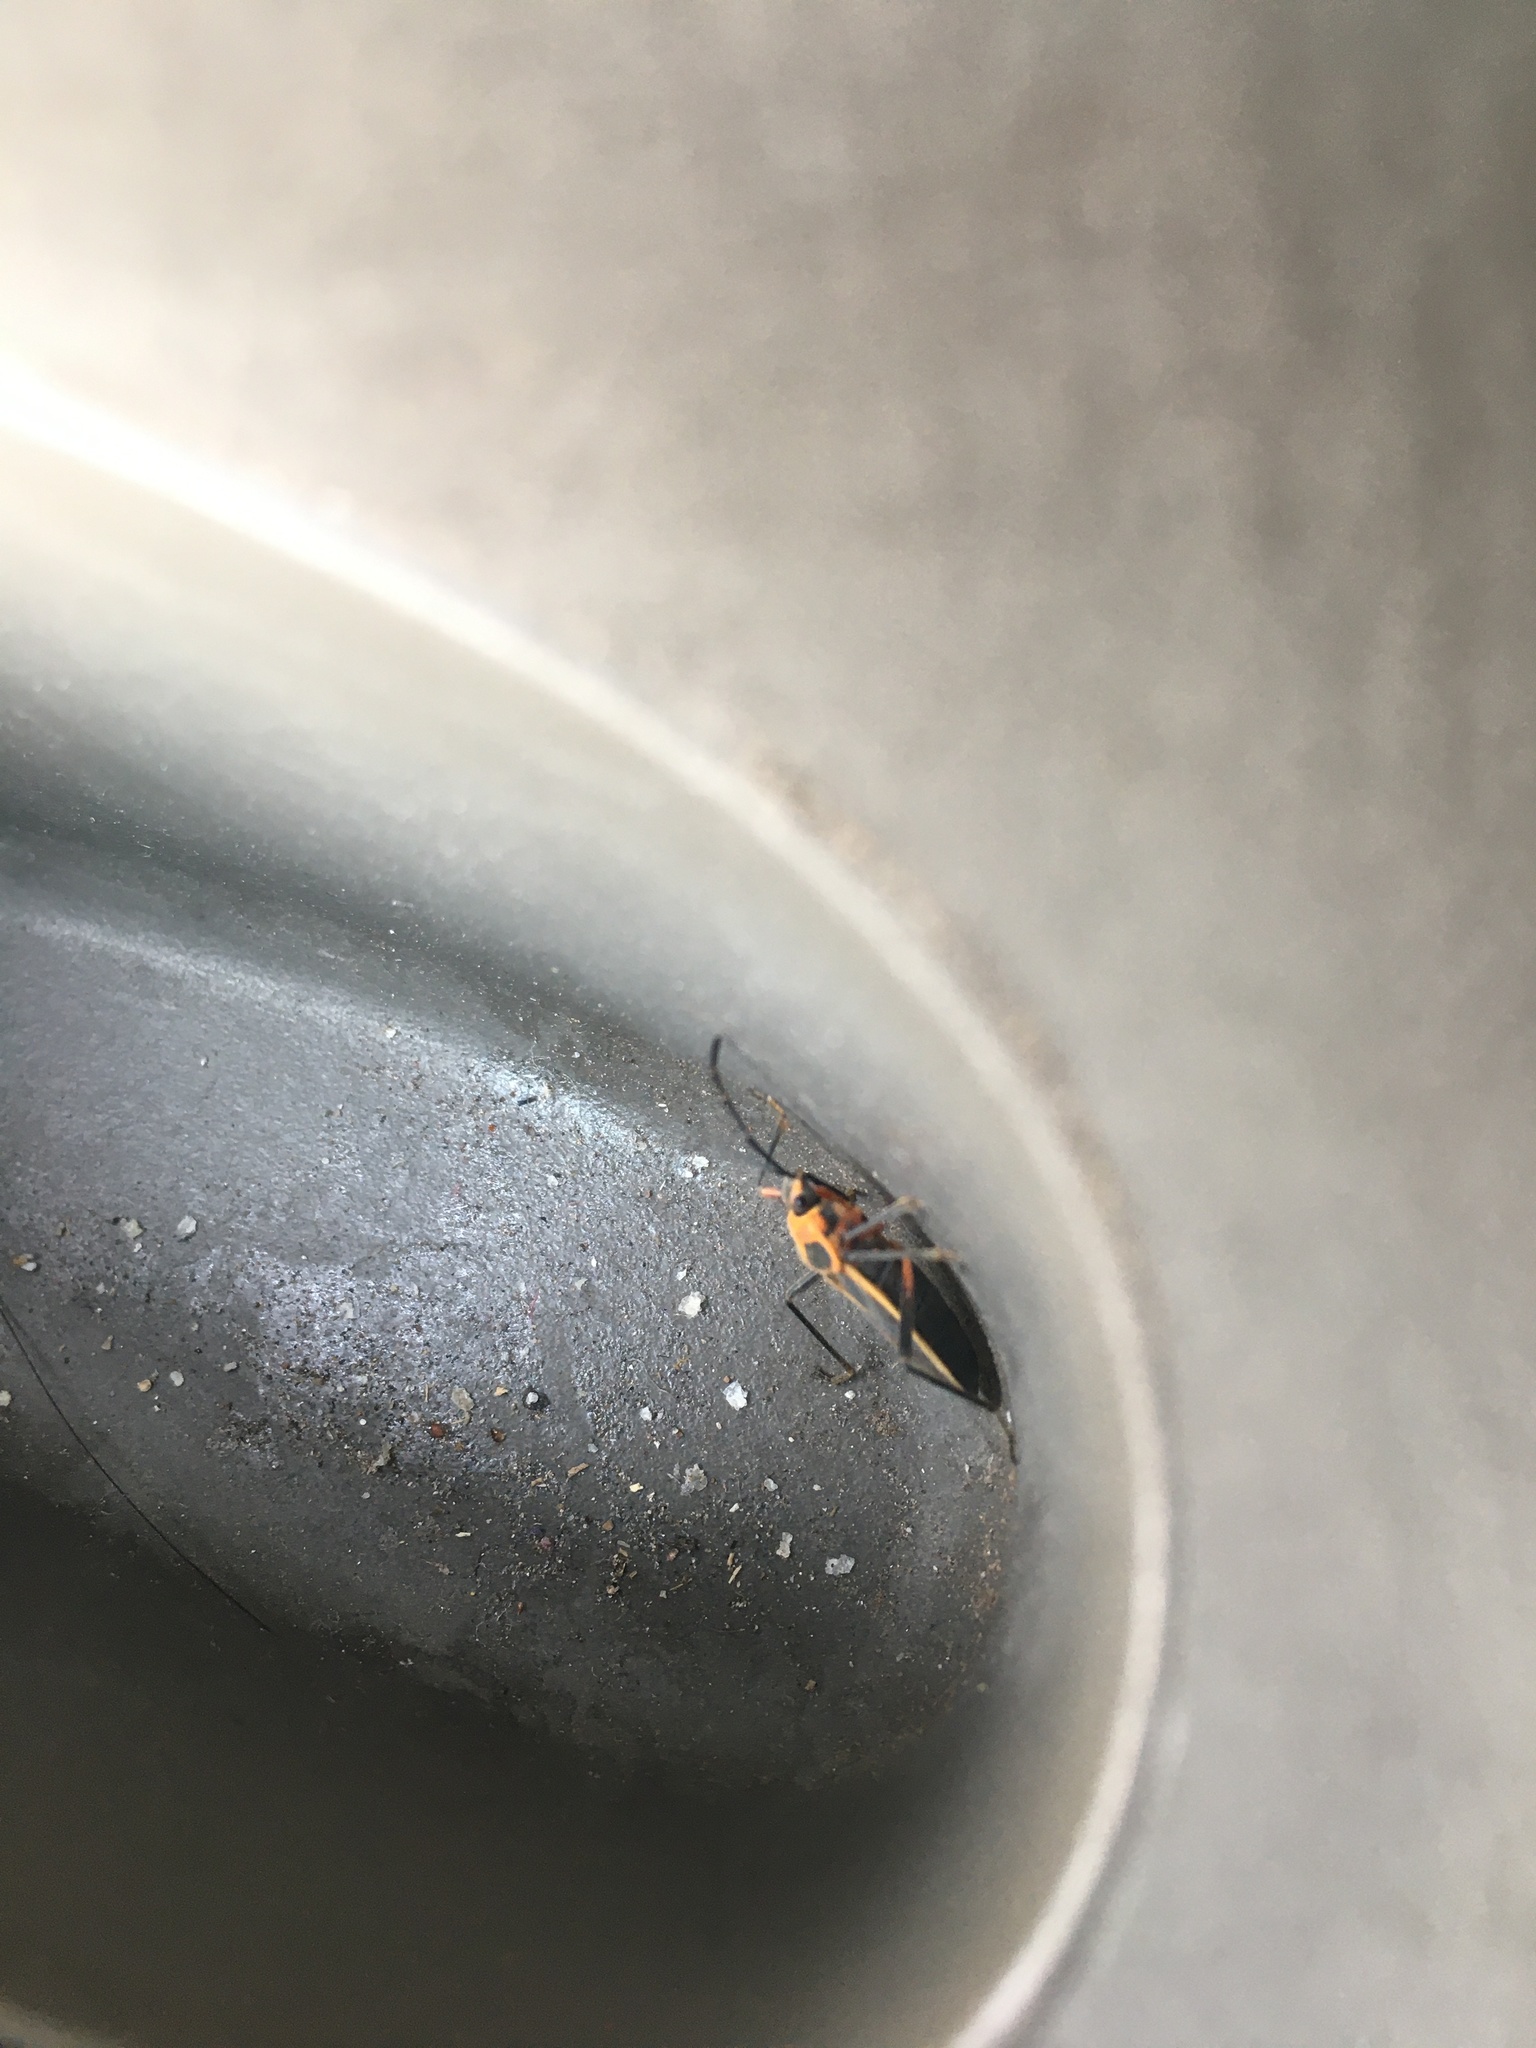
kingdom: Animalia
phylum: Arthropoda
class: Insecta
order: Hemiptera
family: Largidae
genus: Stenomacra
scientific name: Stenomacra marginella
